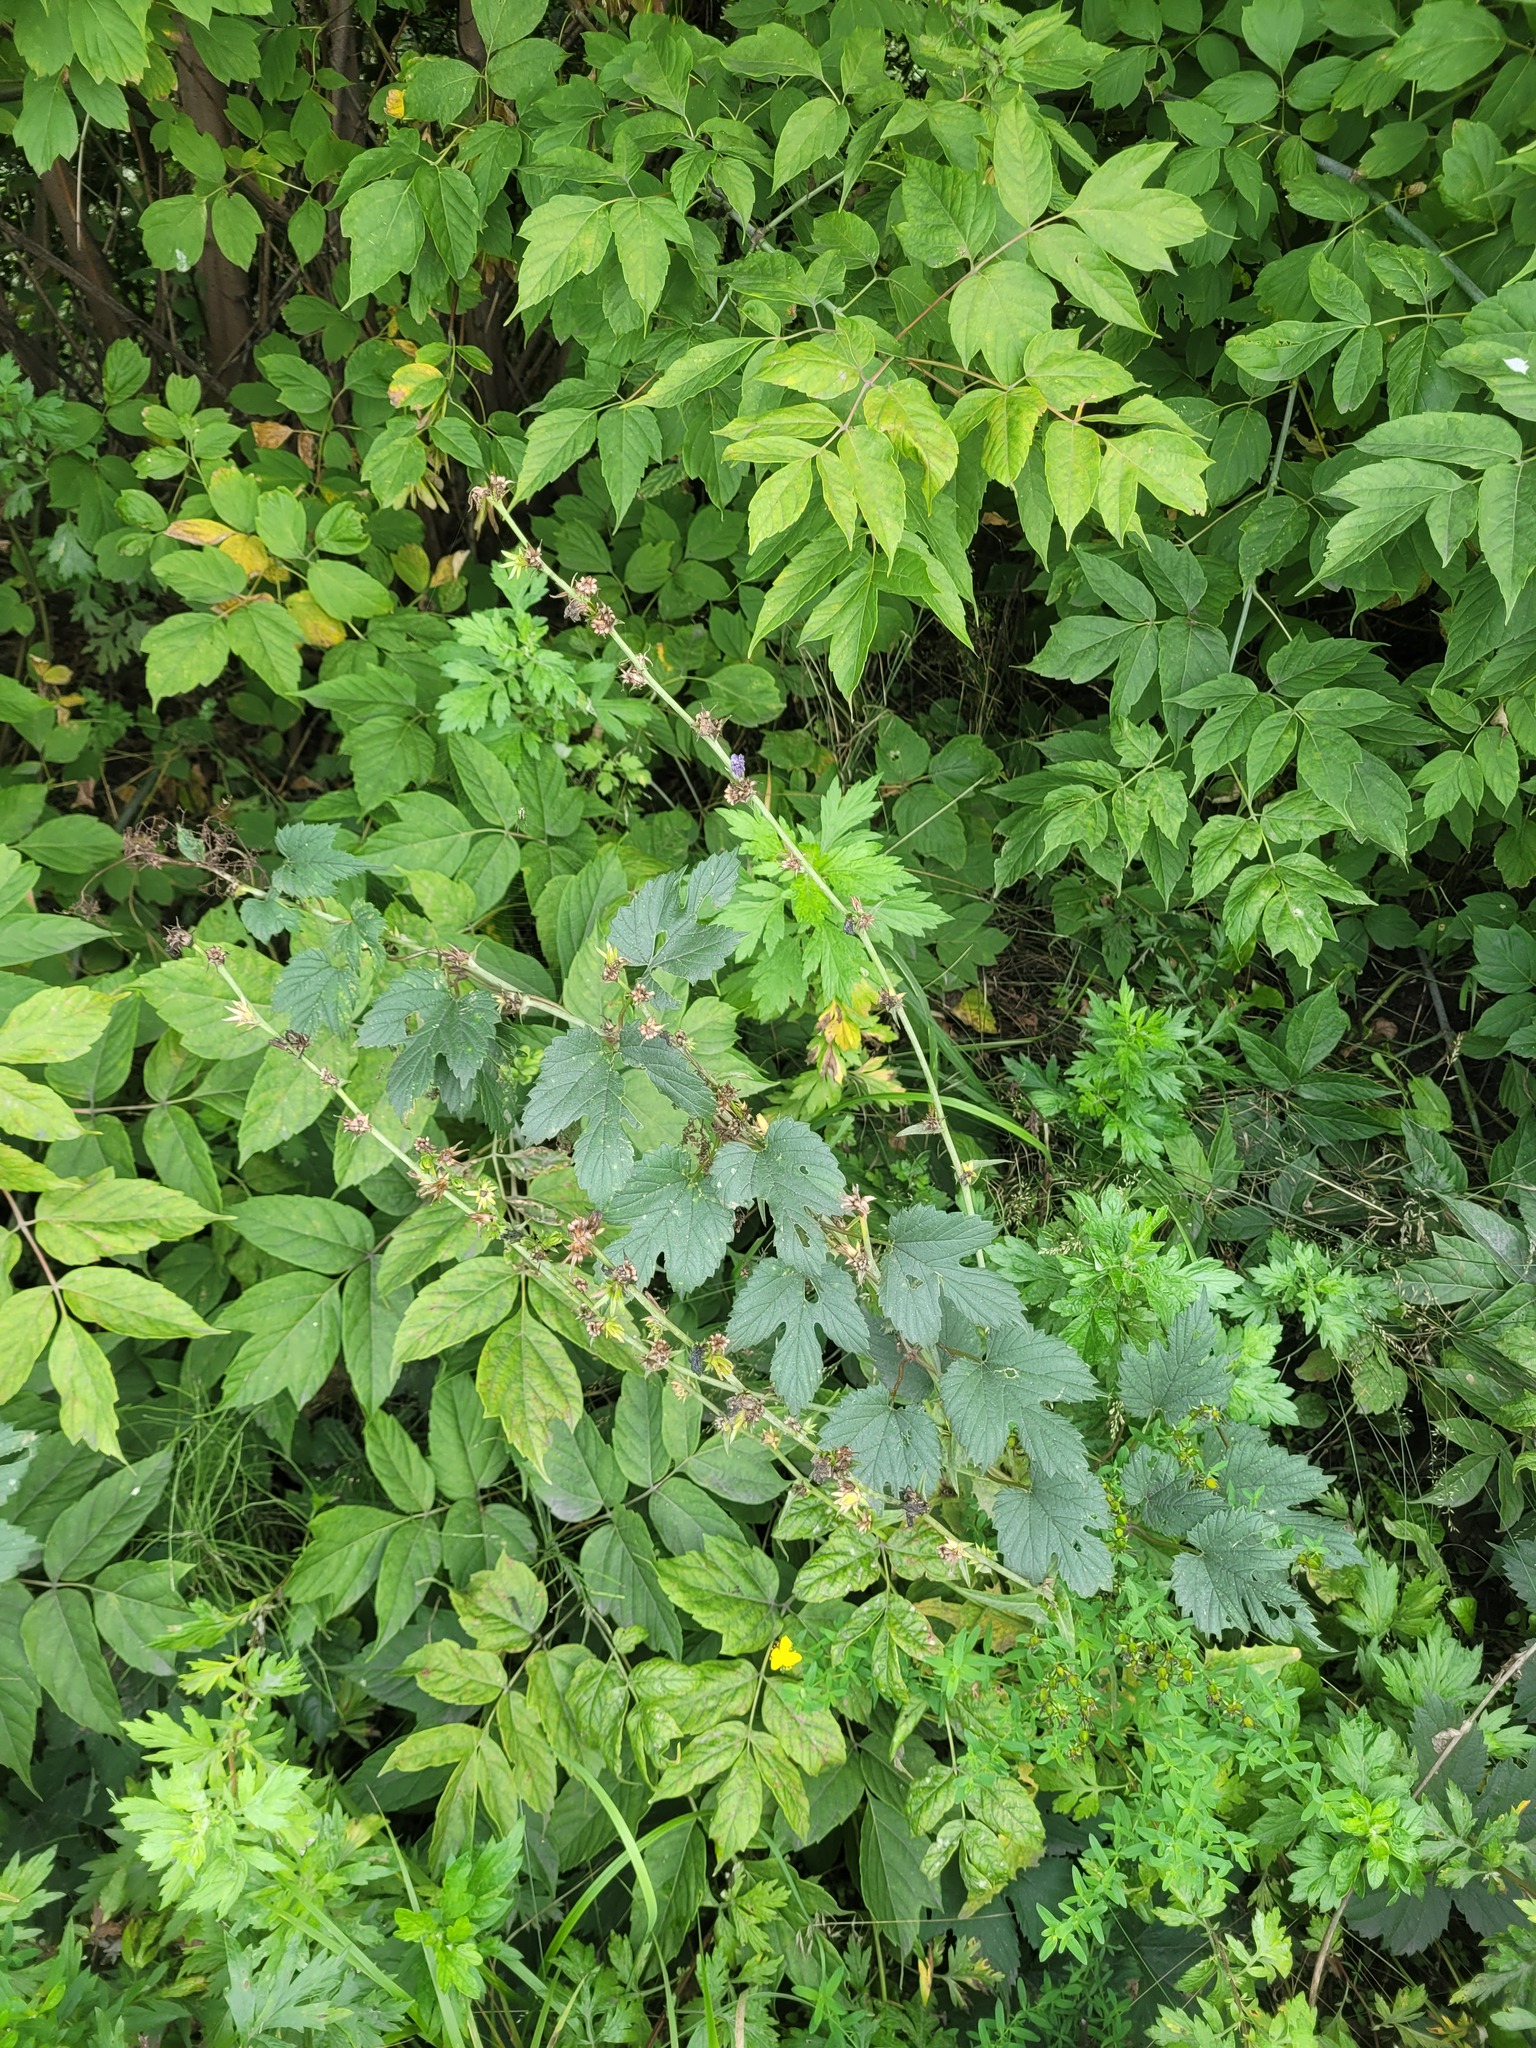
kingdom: Plantae
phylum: Tracheophyta
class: Magnoliopsida
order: Rosales
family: Cannabaceae
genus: Humulus
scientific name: Humulus lupulus
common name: Hop
